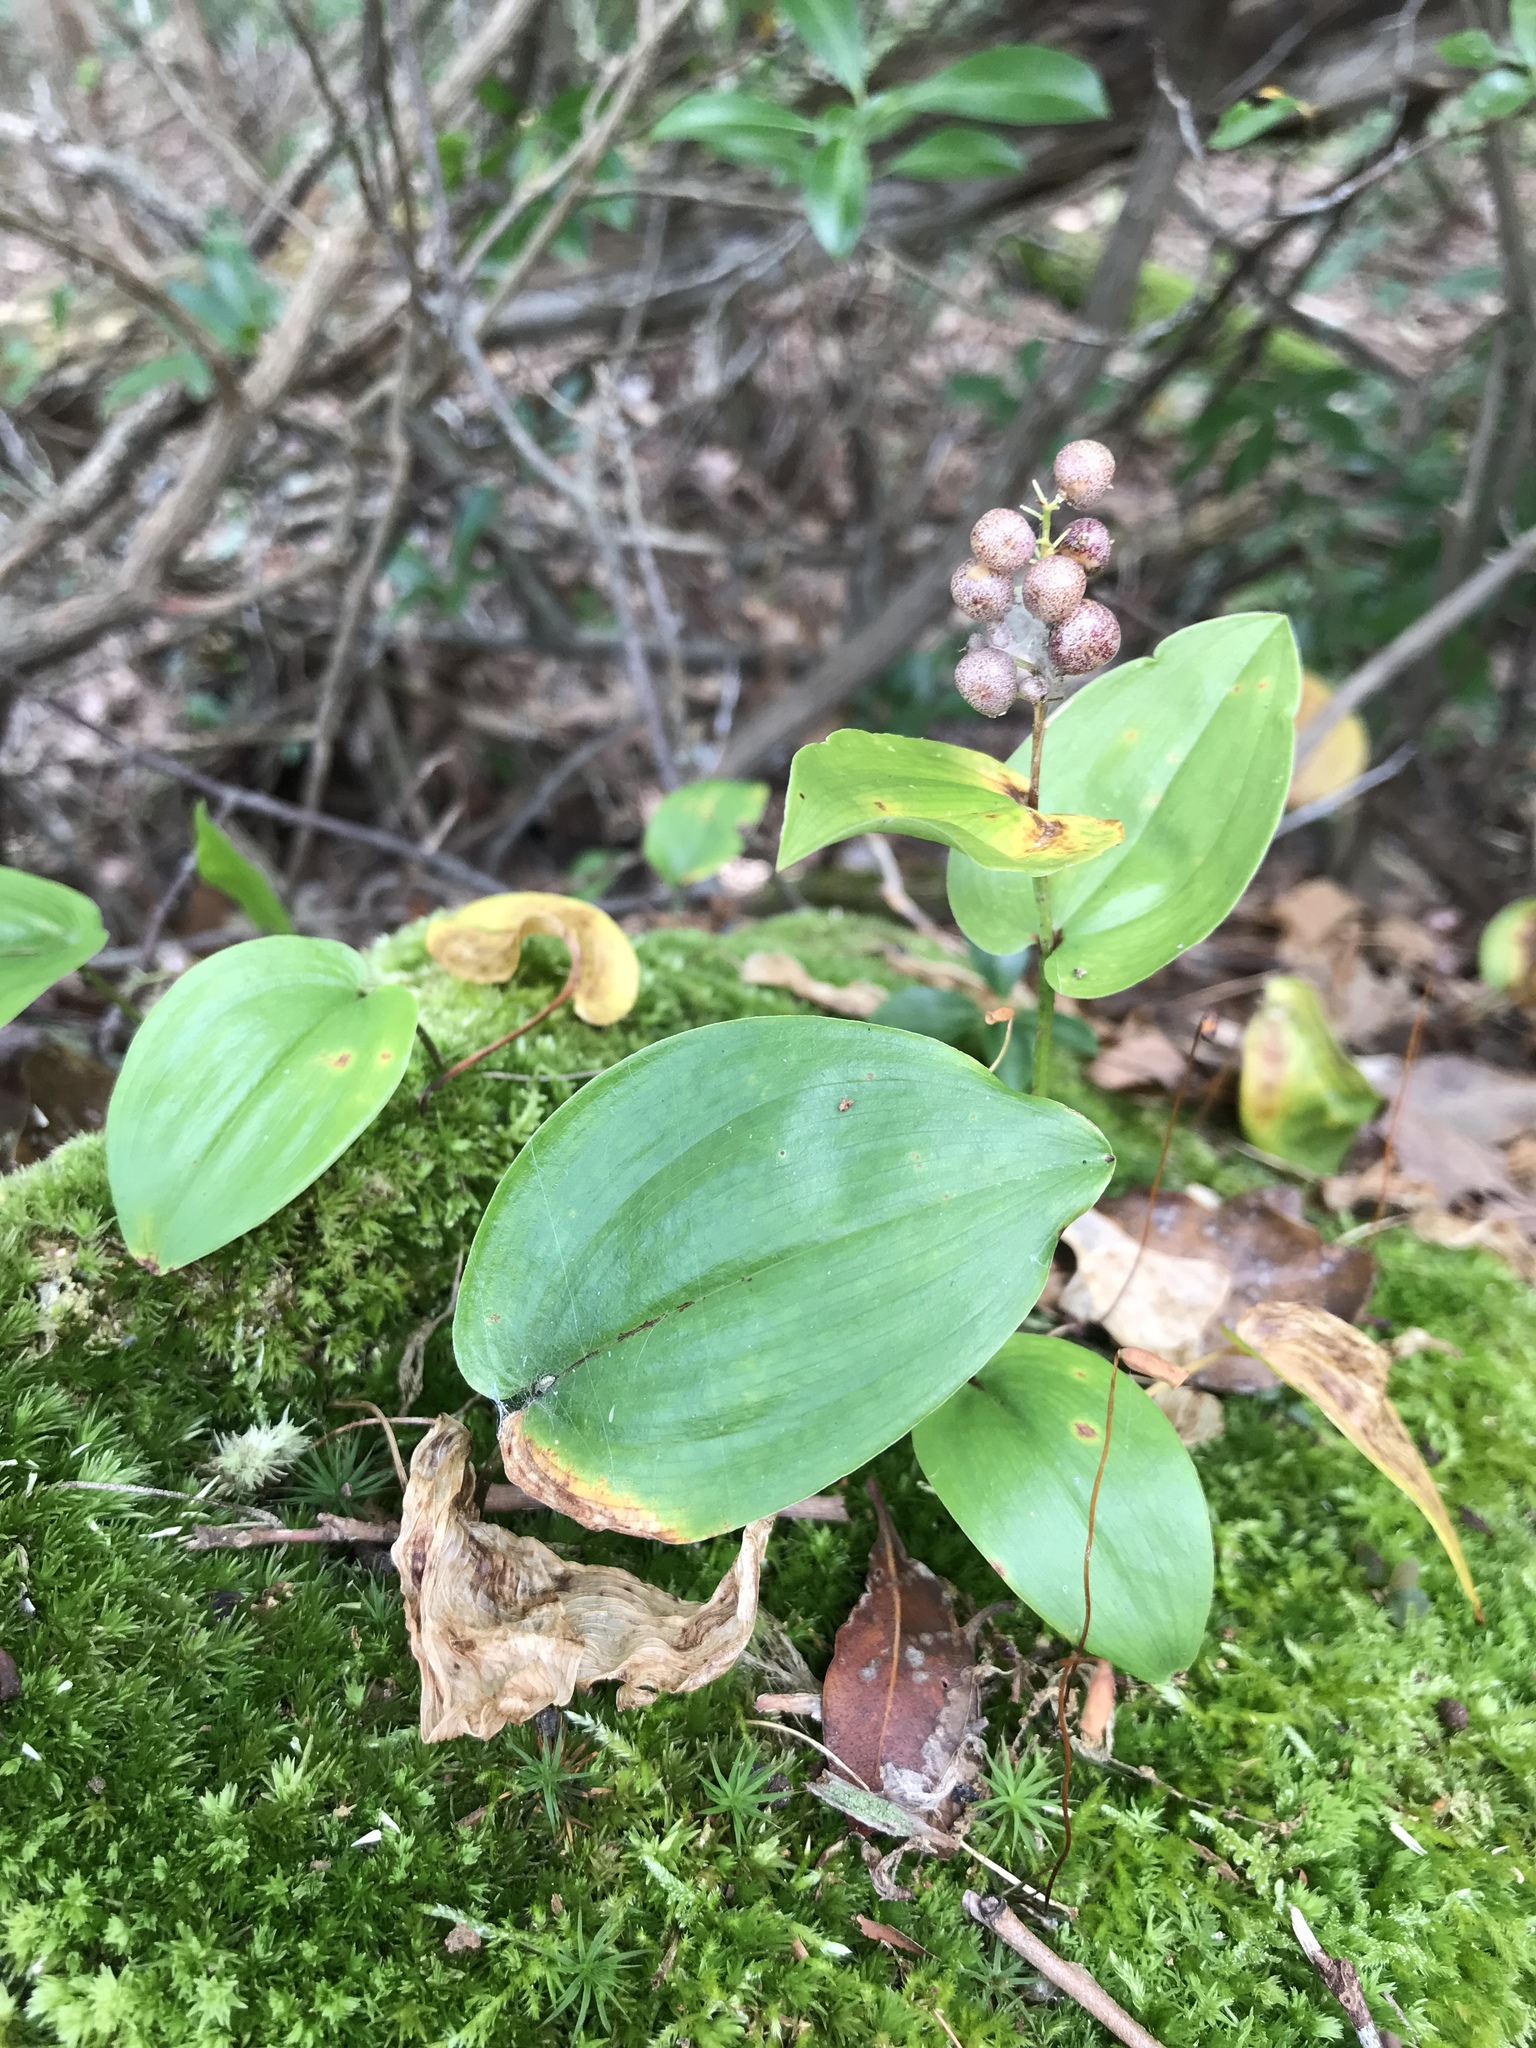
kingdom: Plantae
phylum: Tracheophyta
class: Liliopsida
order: Asparagales
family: Asparagaceae
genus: Maianthemum
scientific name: Maianthemum canadense
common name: False lily-of-the-valley
